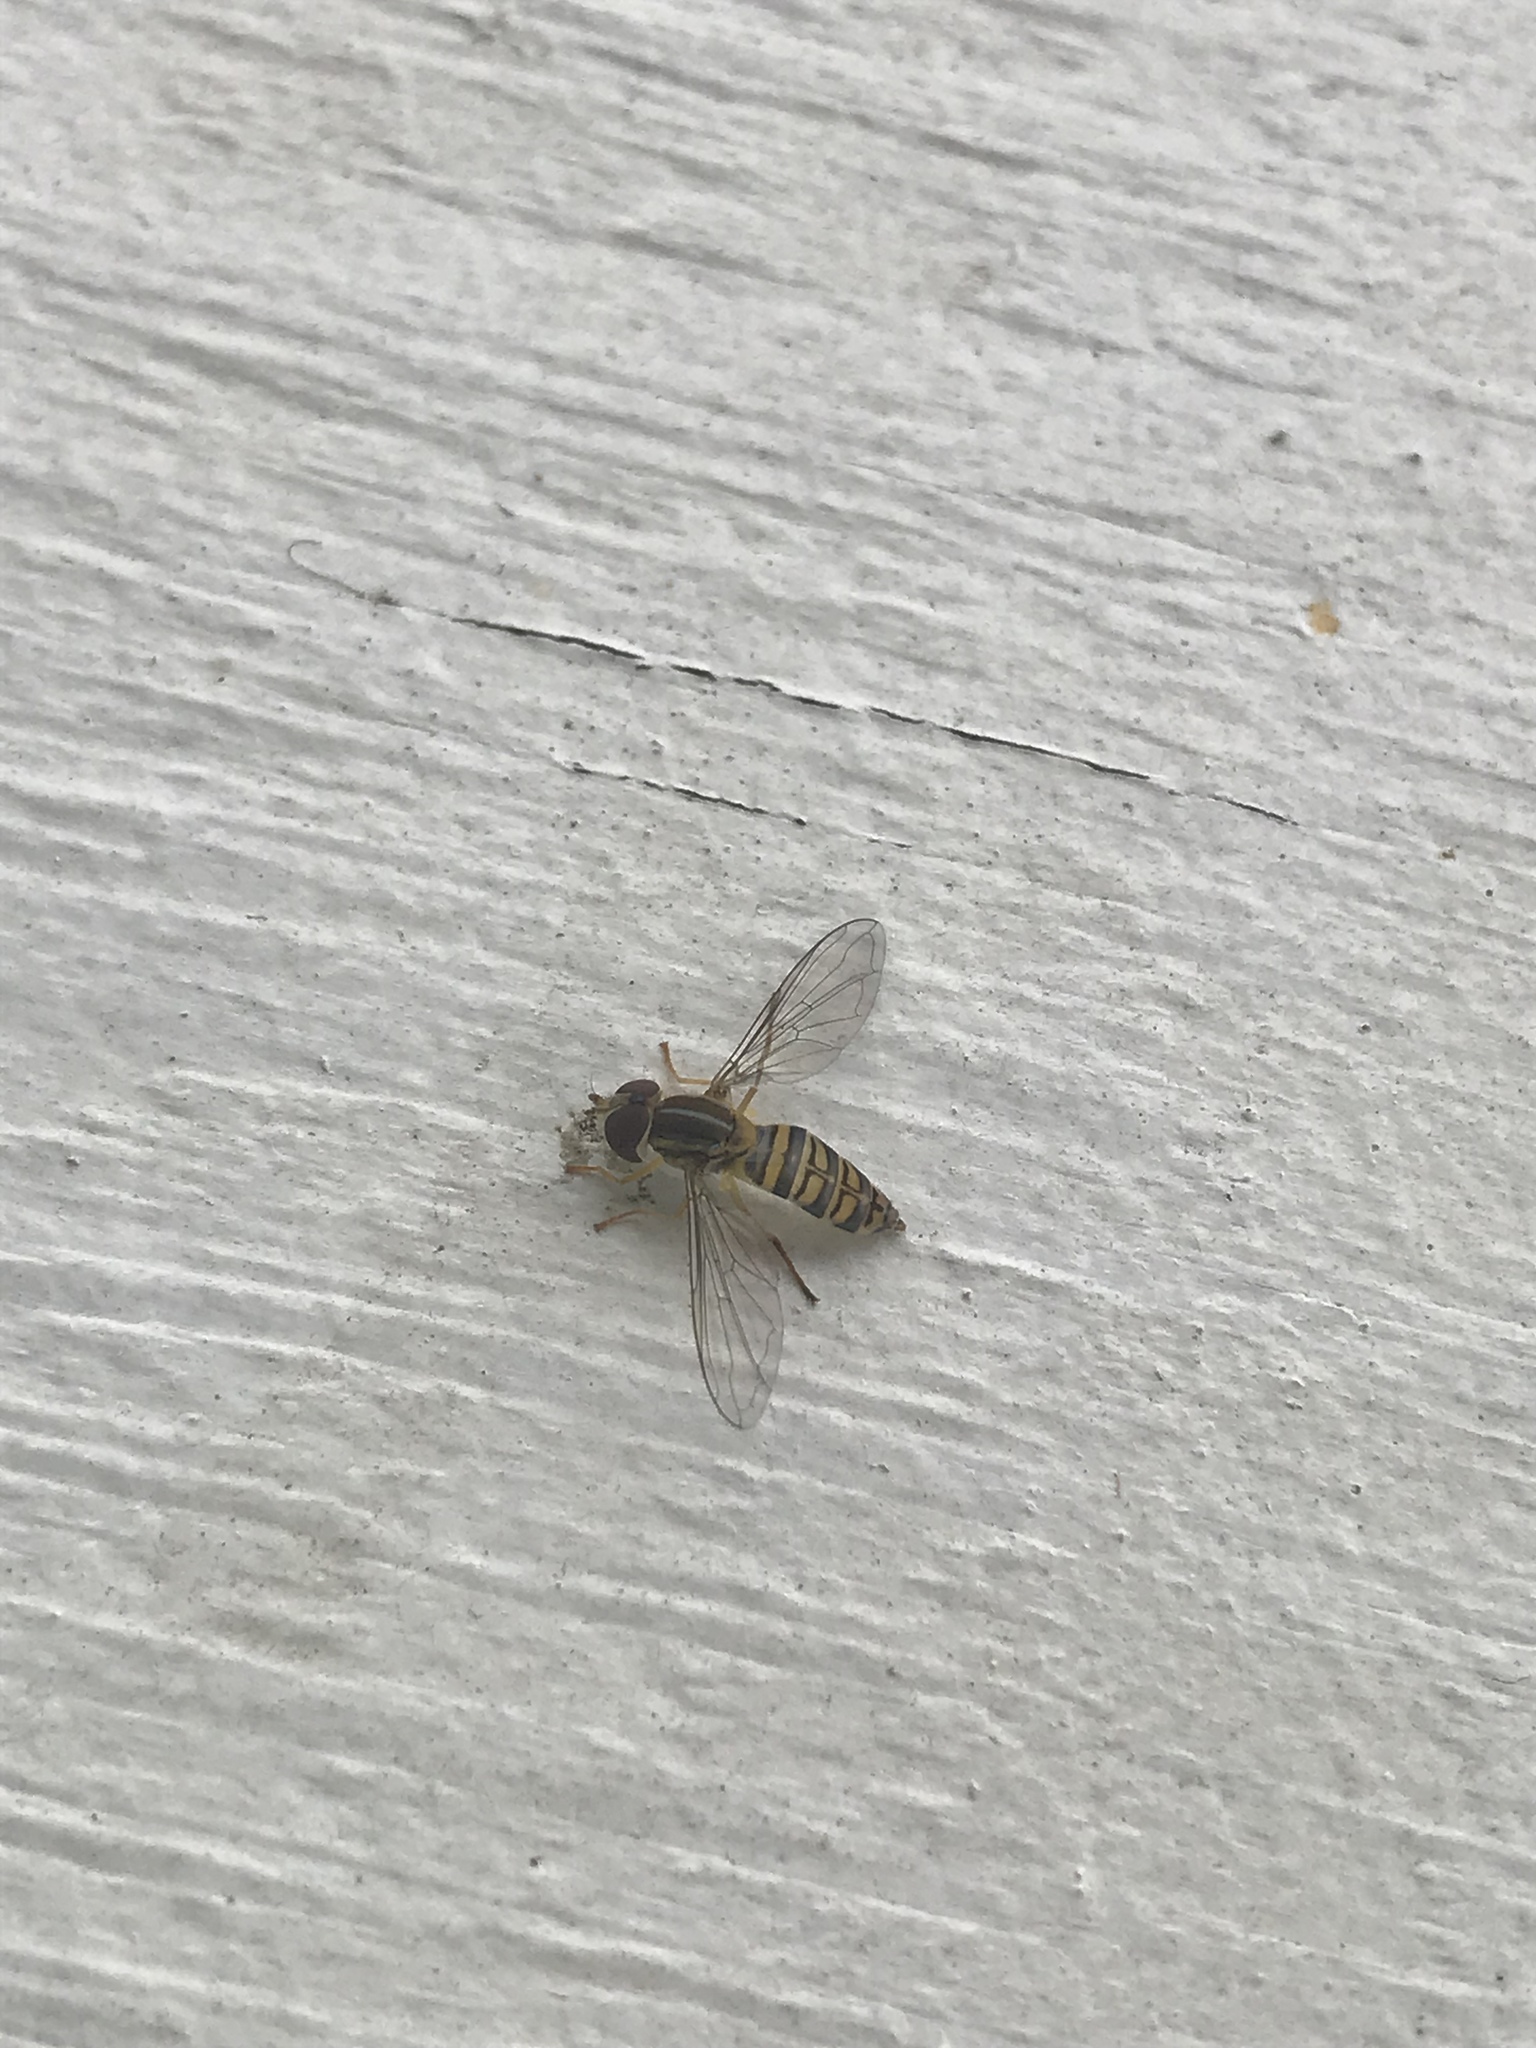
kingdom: Animalia
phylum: Arthropoda
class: Insecta
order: Diptera
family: Syrphidae
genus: Toxomerus
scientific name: Toxomerus politus
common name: Maize calligrapher
